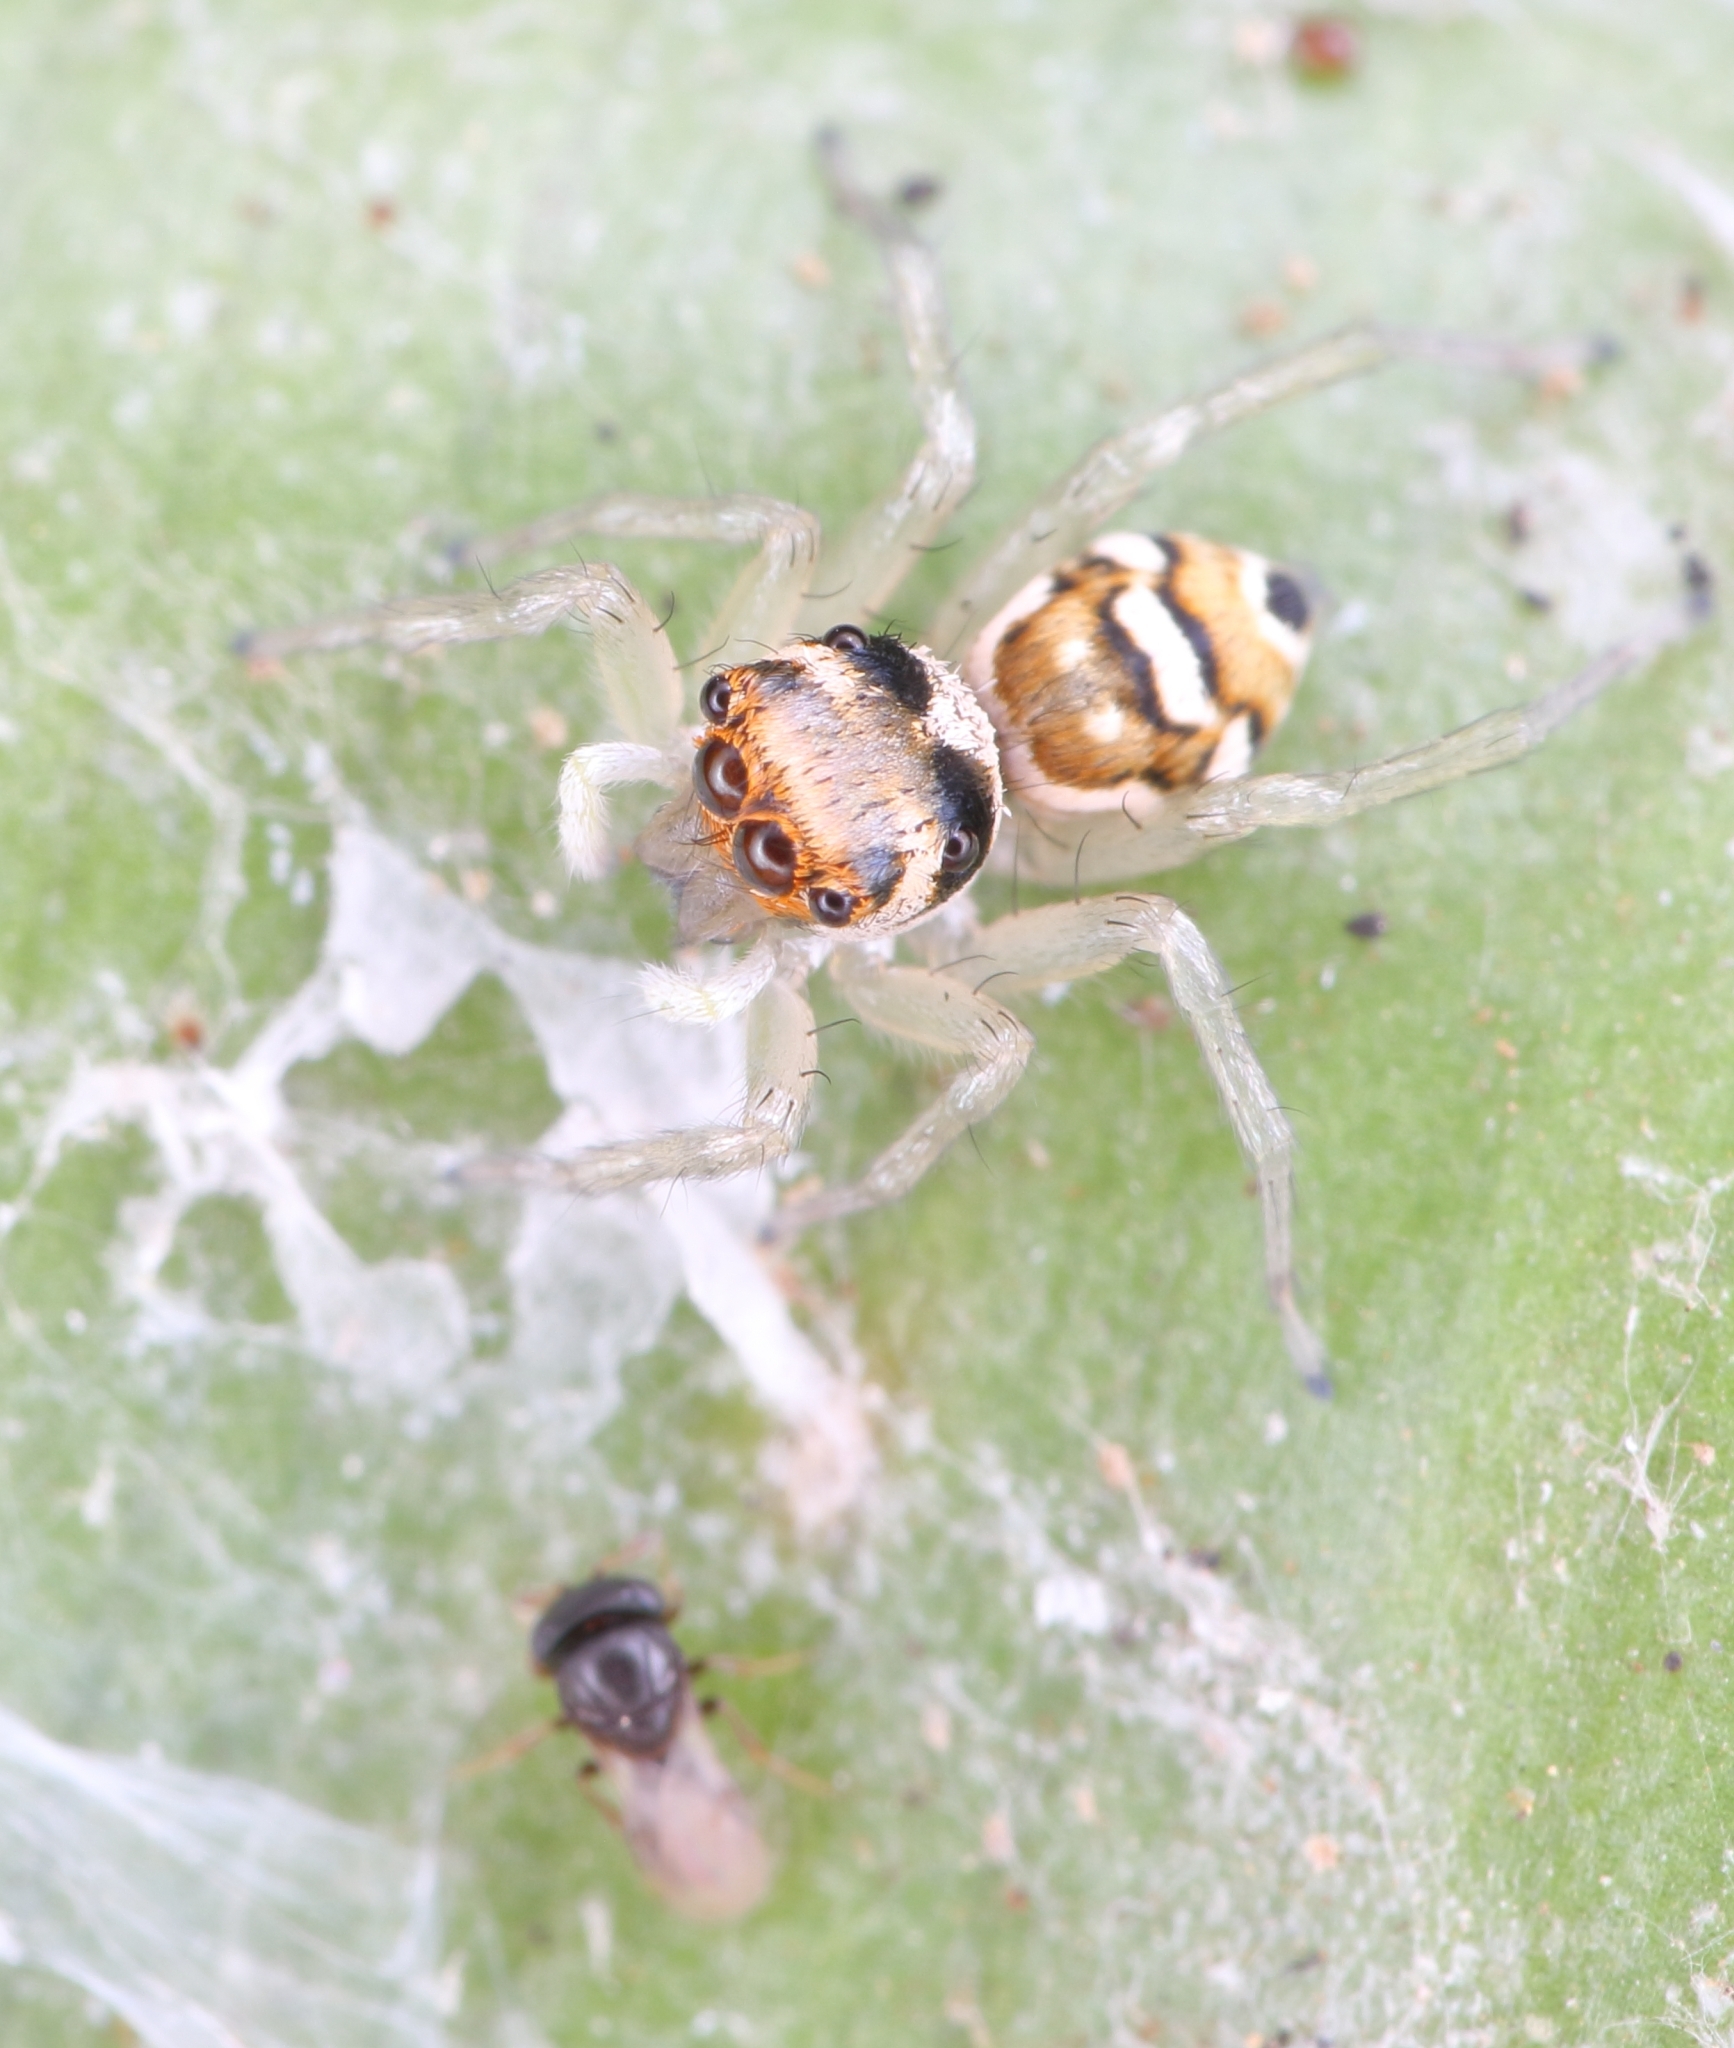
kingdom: Animalia
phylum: Arthropoda
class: Arachnida
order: Araneae
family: Salticidae
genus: Phintella
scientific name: Phintella aequipes
